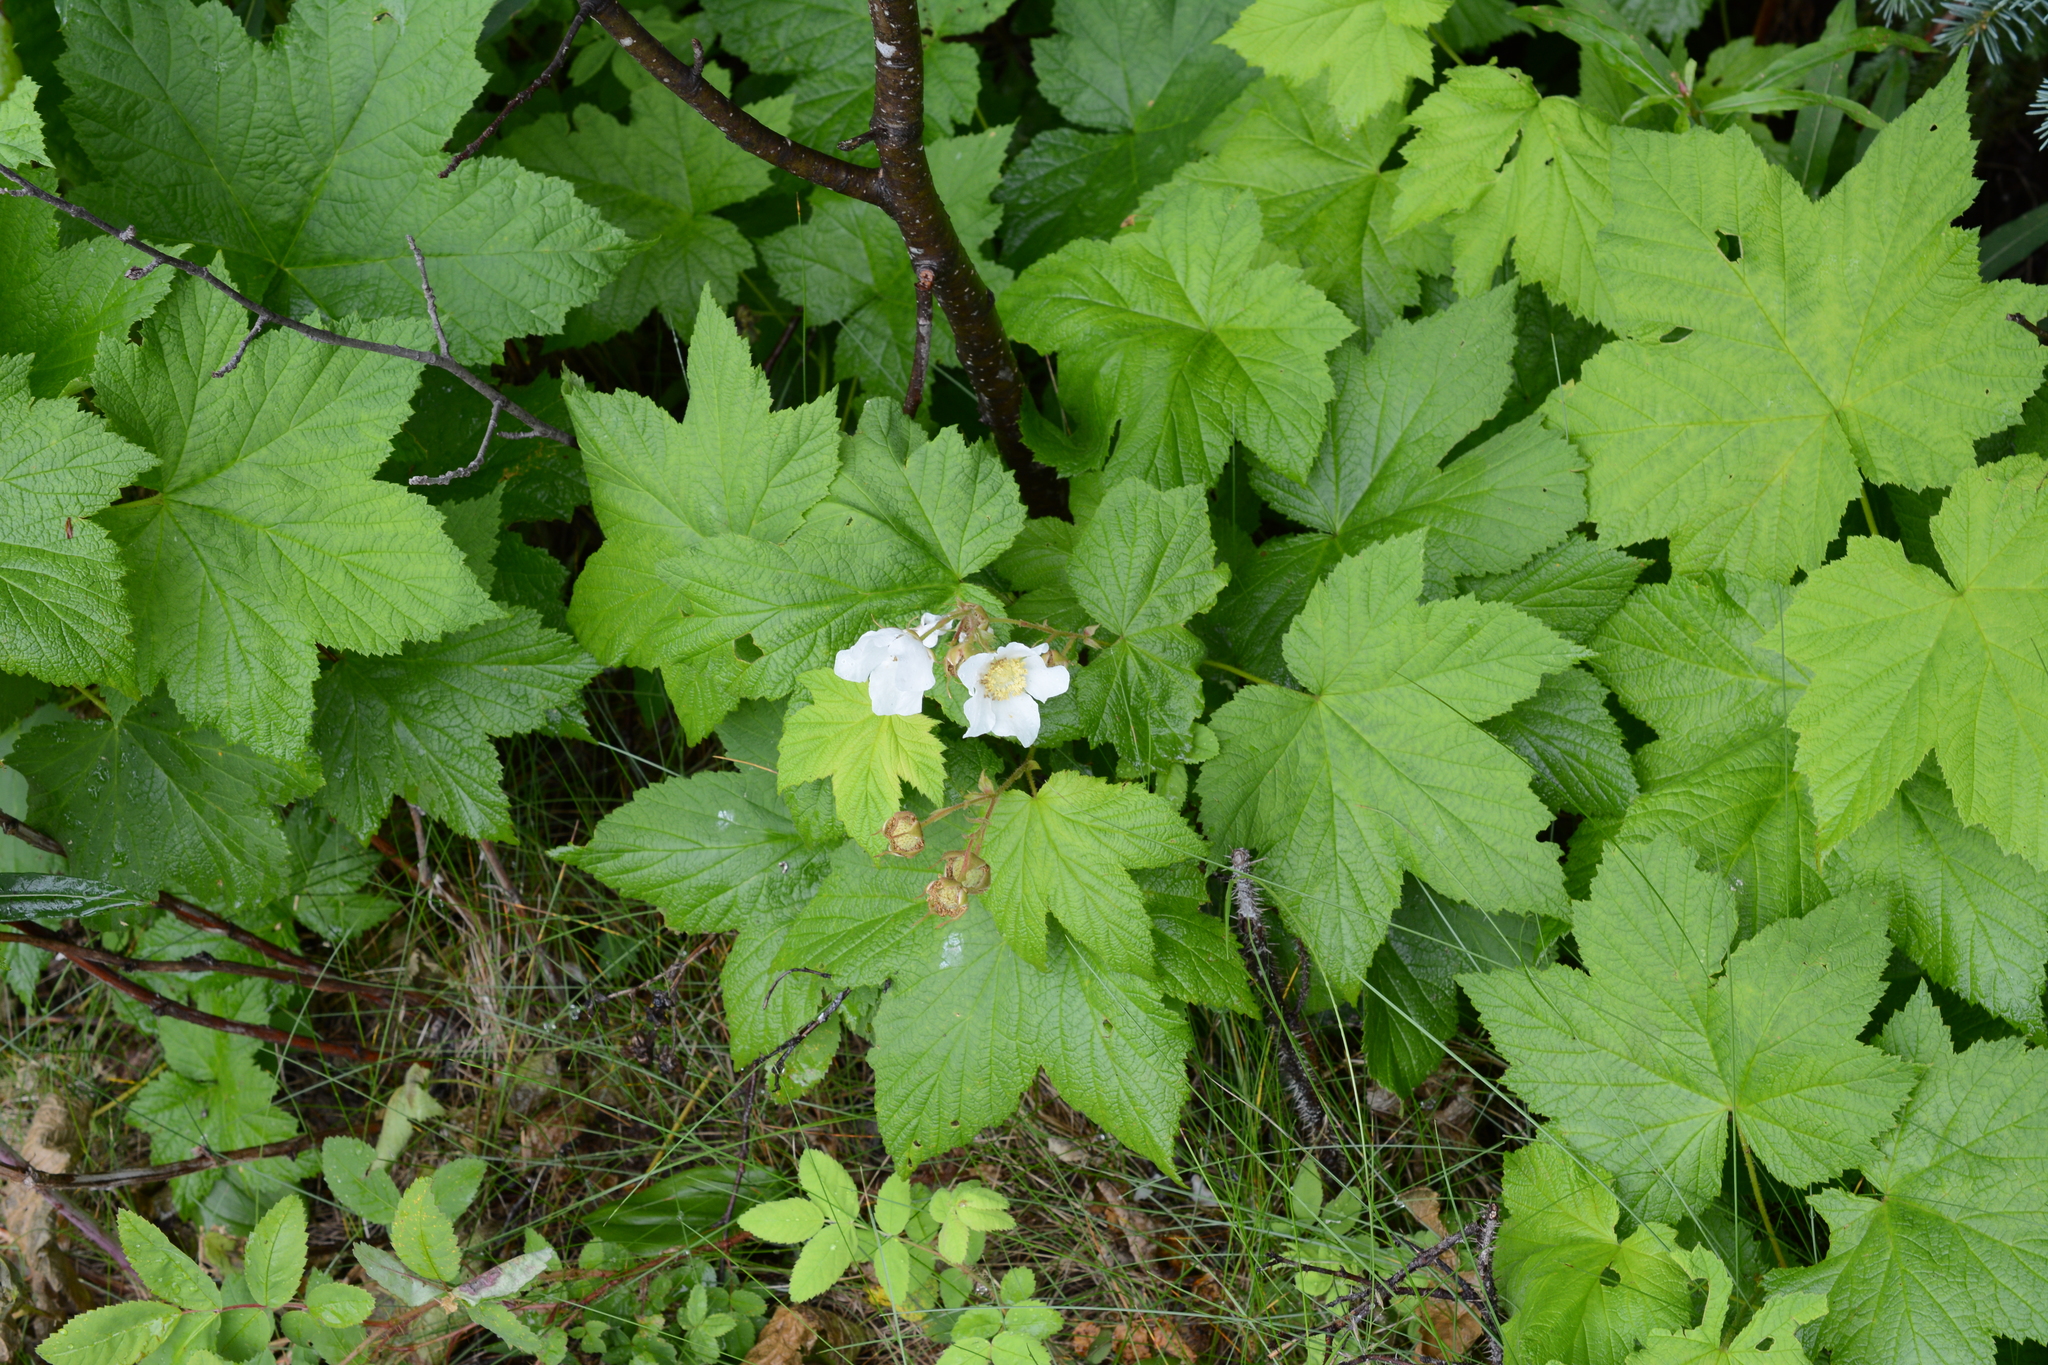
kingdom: Plantae
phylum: Tracheophyta
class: Magnoliopsida
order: Rosales
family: Rosaceae
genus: Rubus
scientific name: Rubus parviflorus
